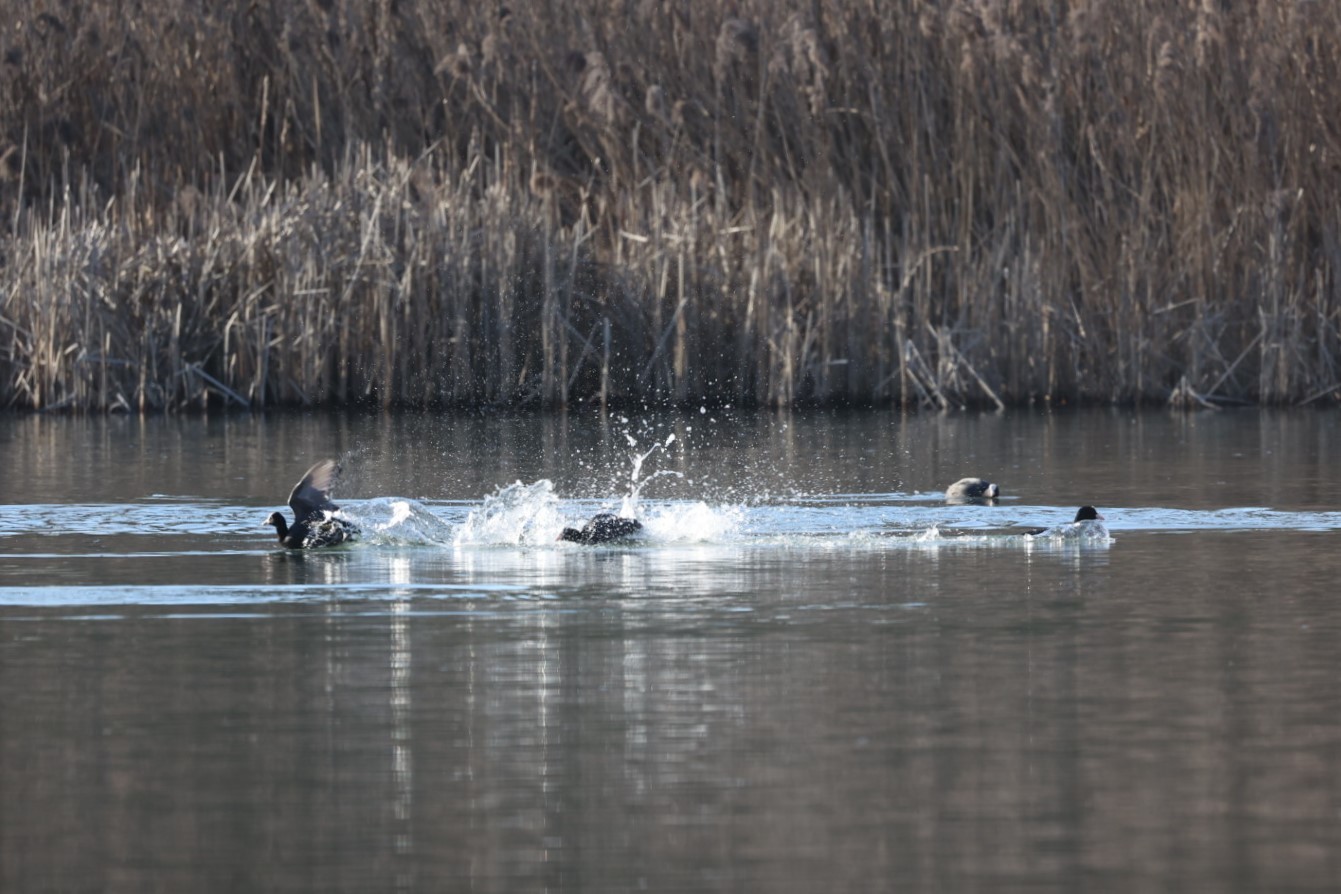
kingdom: Animalia
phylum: Chordata
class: Aves
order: Gruiformes
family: Rallidae
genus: Fulica
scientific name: Fulica atra
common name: Eurasian coot
